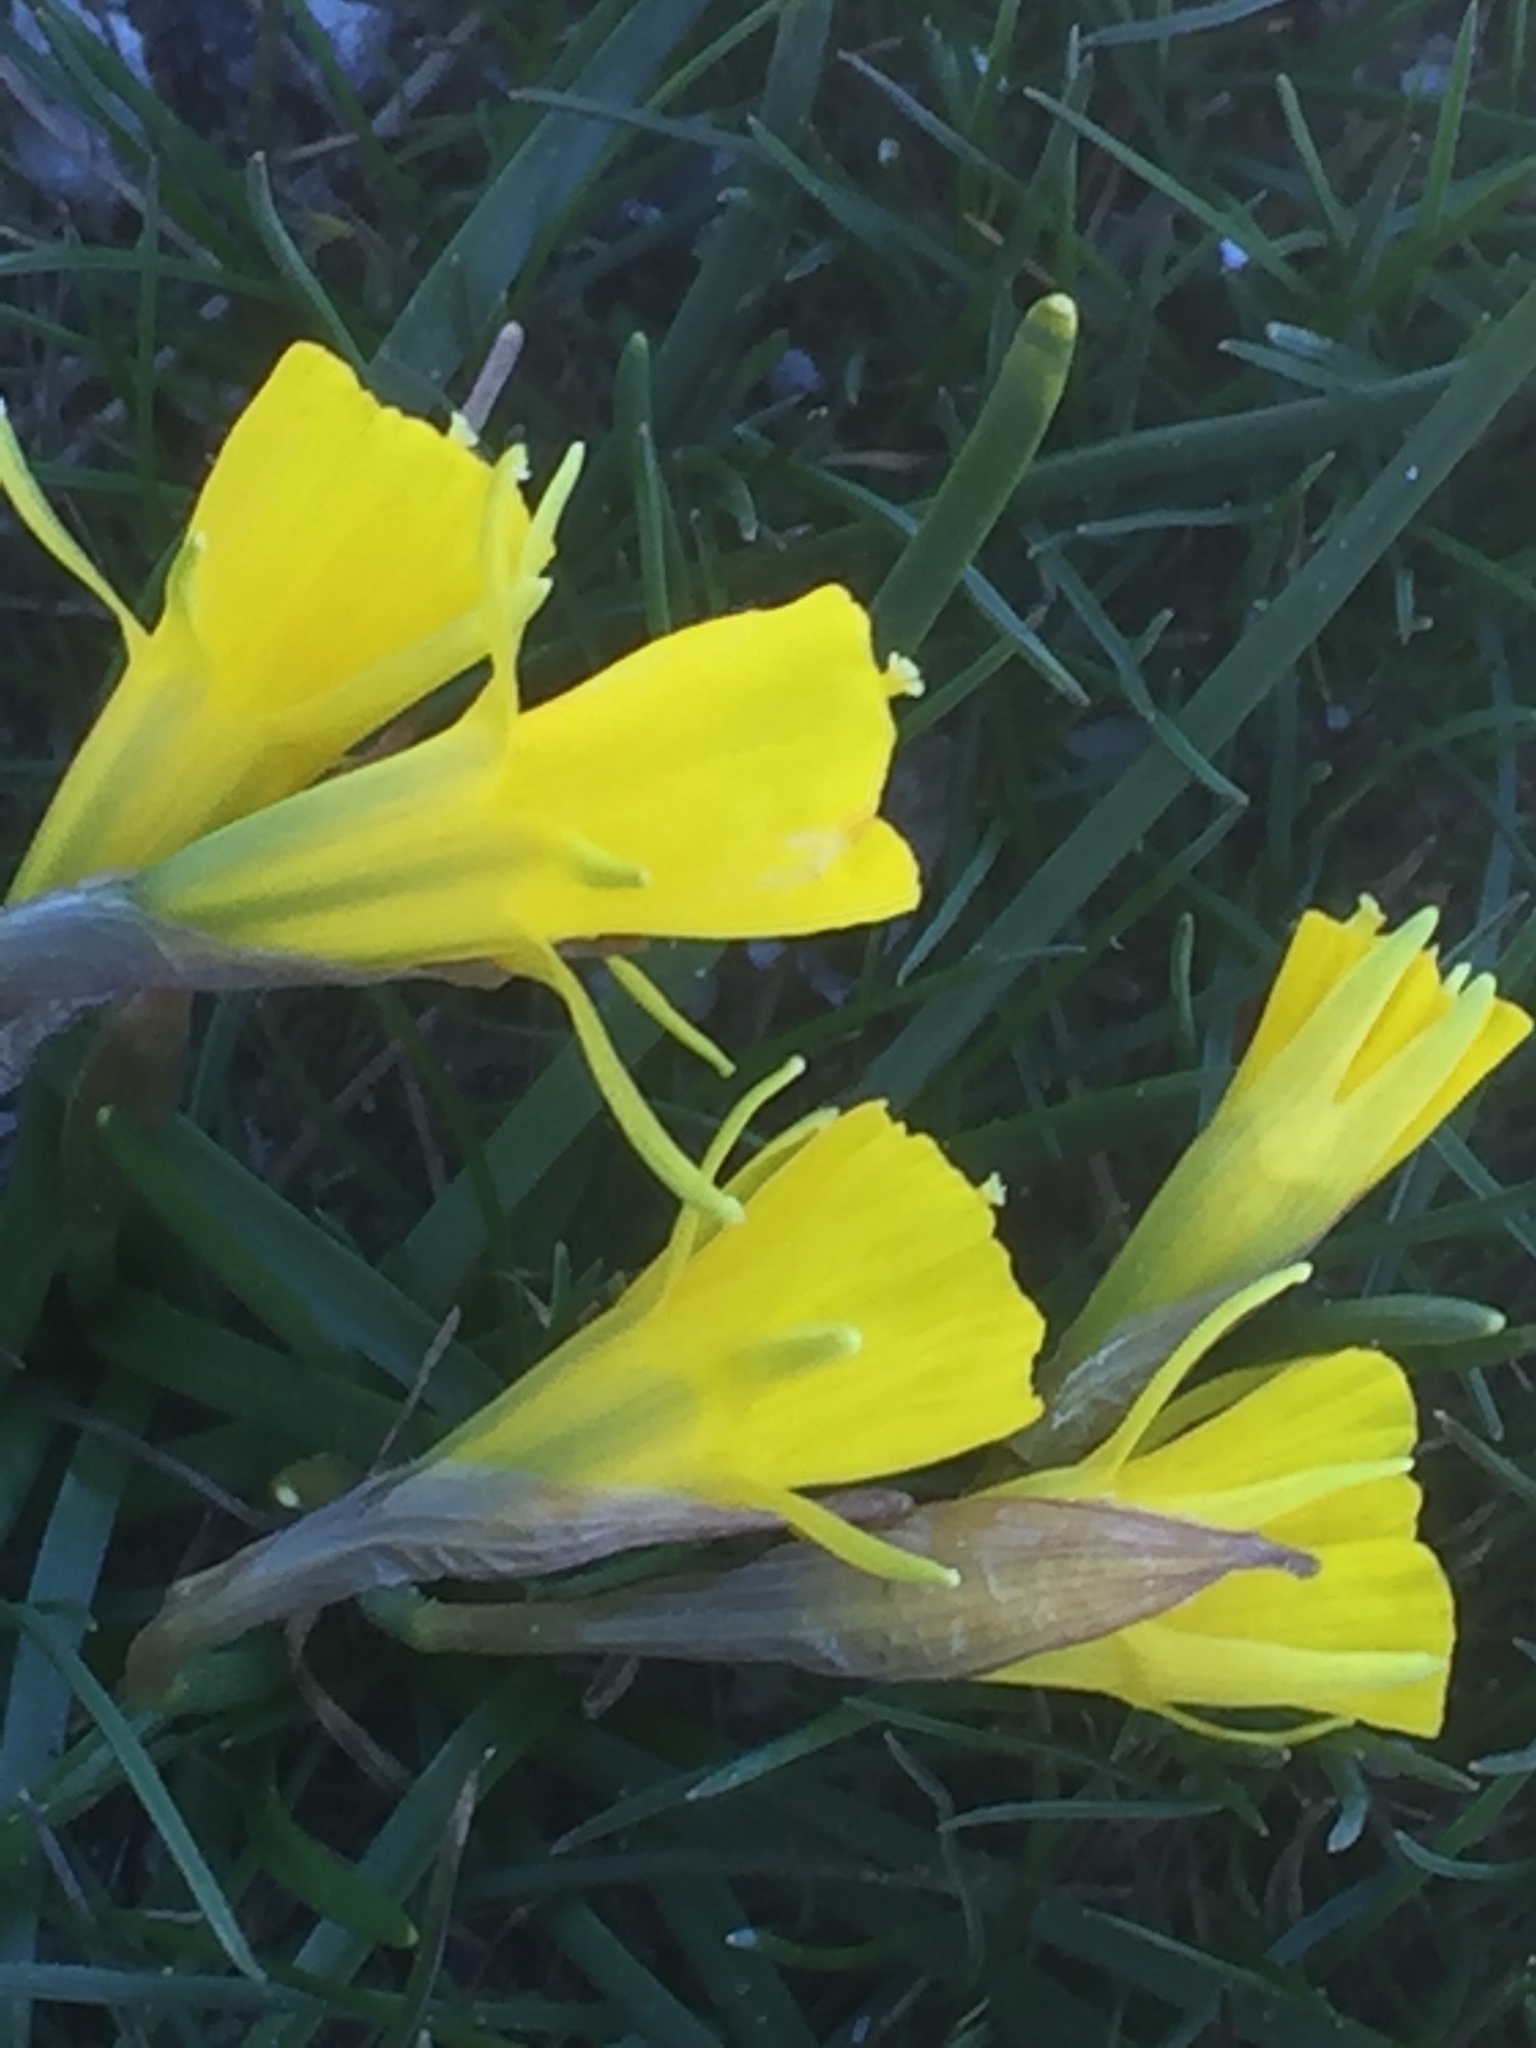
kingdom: Plantae
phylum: Tracheophyta
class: Liliopsida
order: Asparagales
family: Amaryllidaceae
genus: Narcissus
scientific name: Narcissus bulbocodium
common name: Hoop-petticoat daffodil
